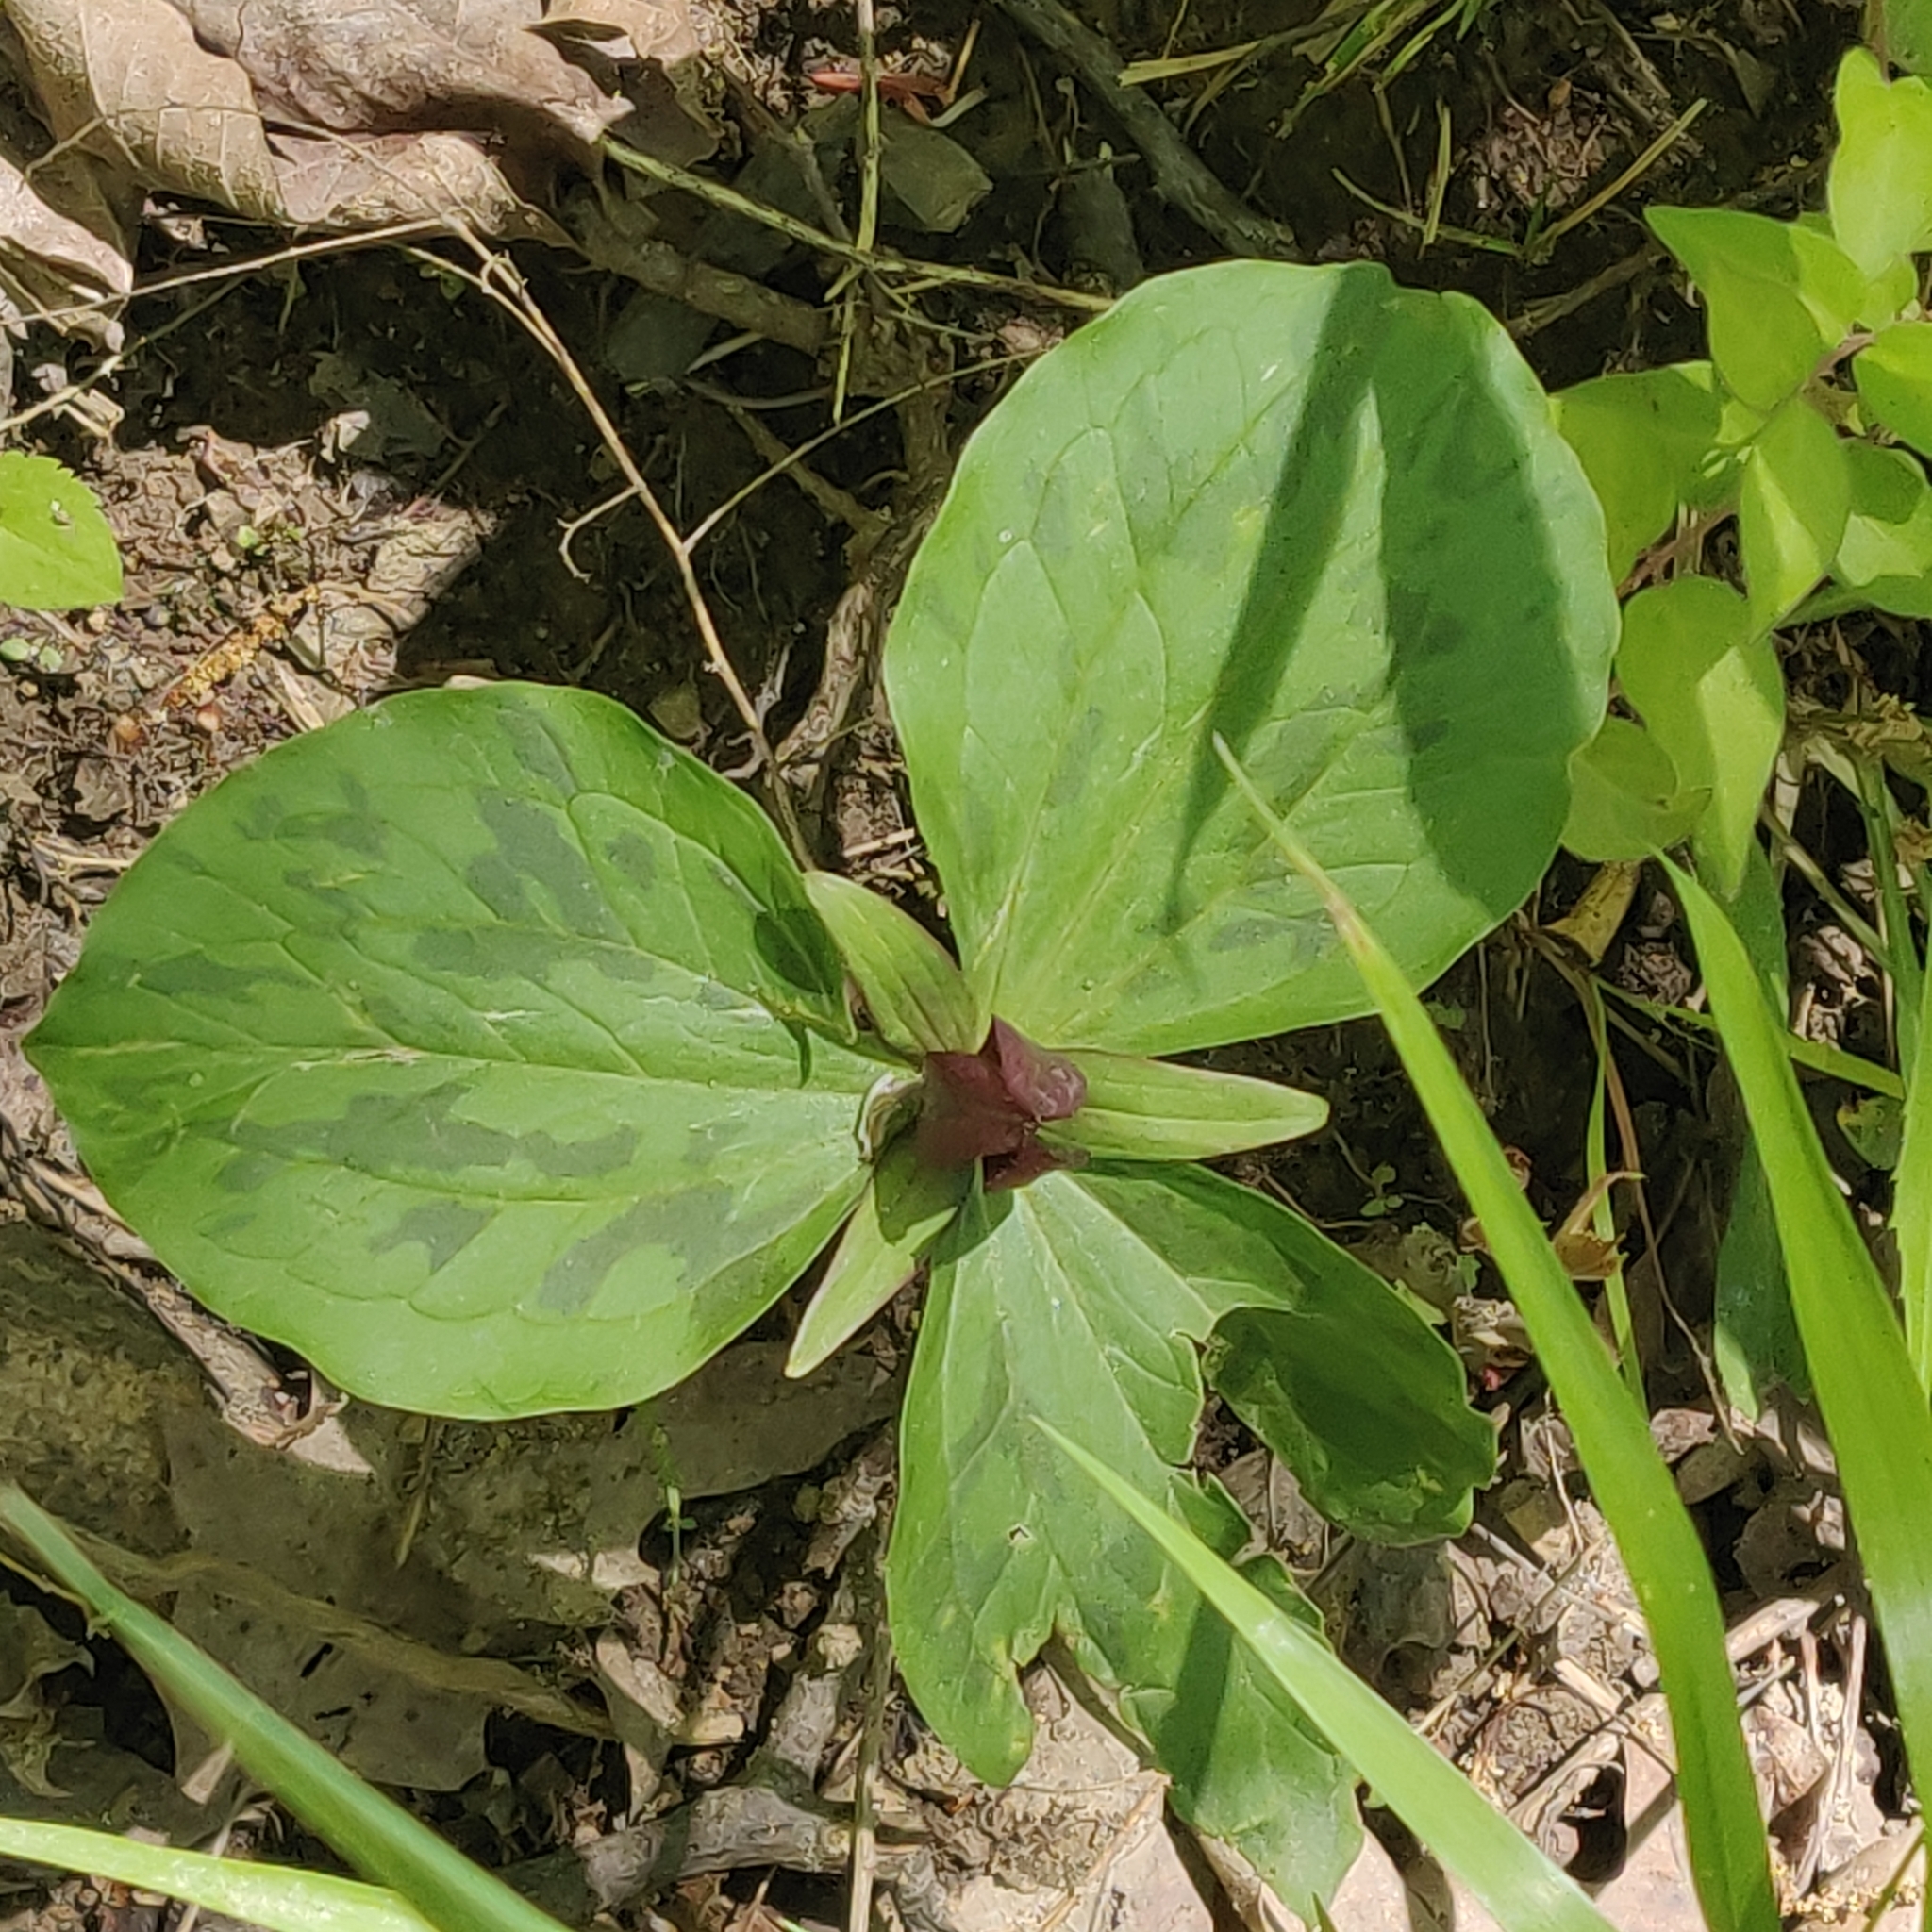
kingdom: Plantae
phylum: Tracheophyta
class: Liliopsida
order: Liliales
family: Melanthiaceae
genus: Trillium
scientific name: Trillium sessile
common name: Sessile trillium
